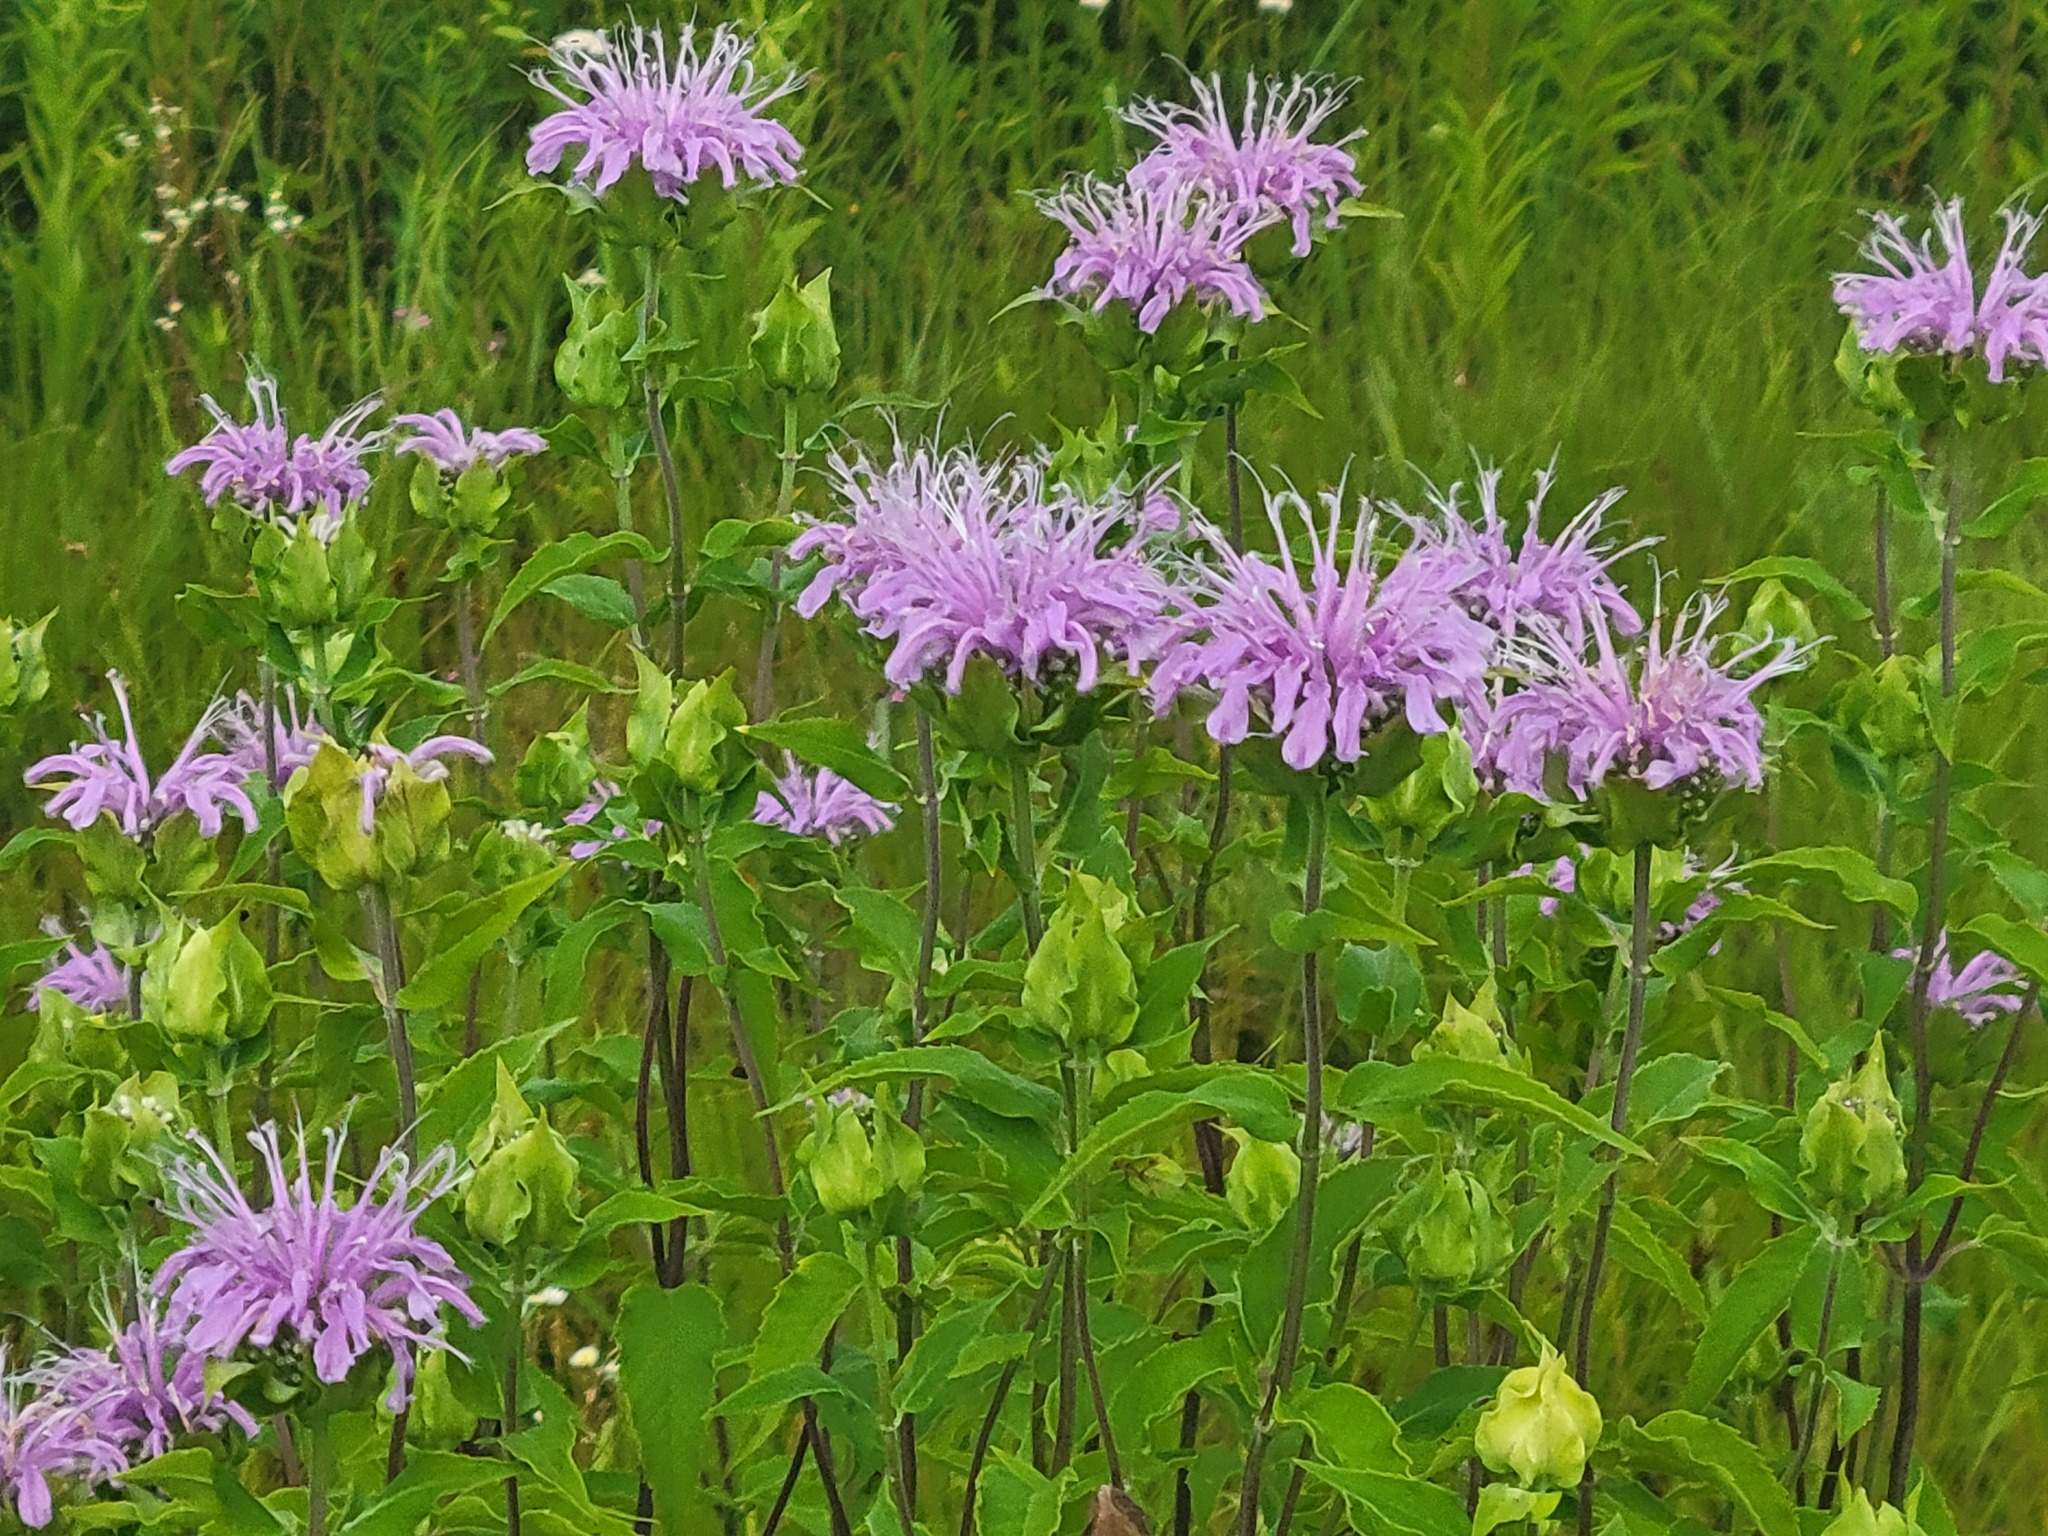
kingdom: Plantae
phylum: Tracheophyta
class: Magnoliopsida
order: Lamiales
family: Lamiaceae
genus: Monarda
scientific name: Monarda fistulosa
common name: Purple beebalm
